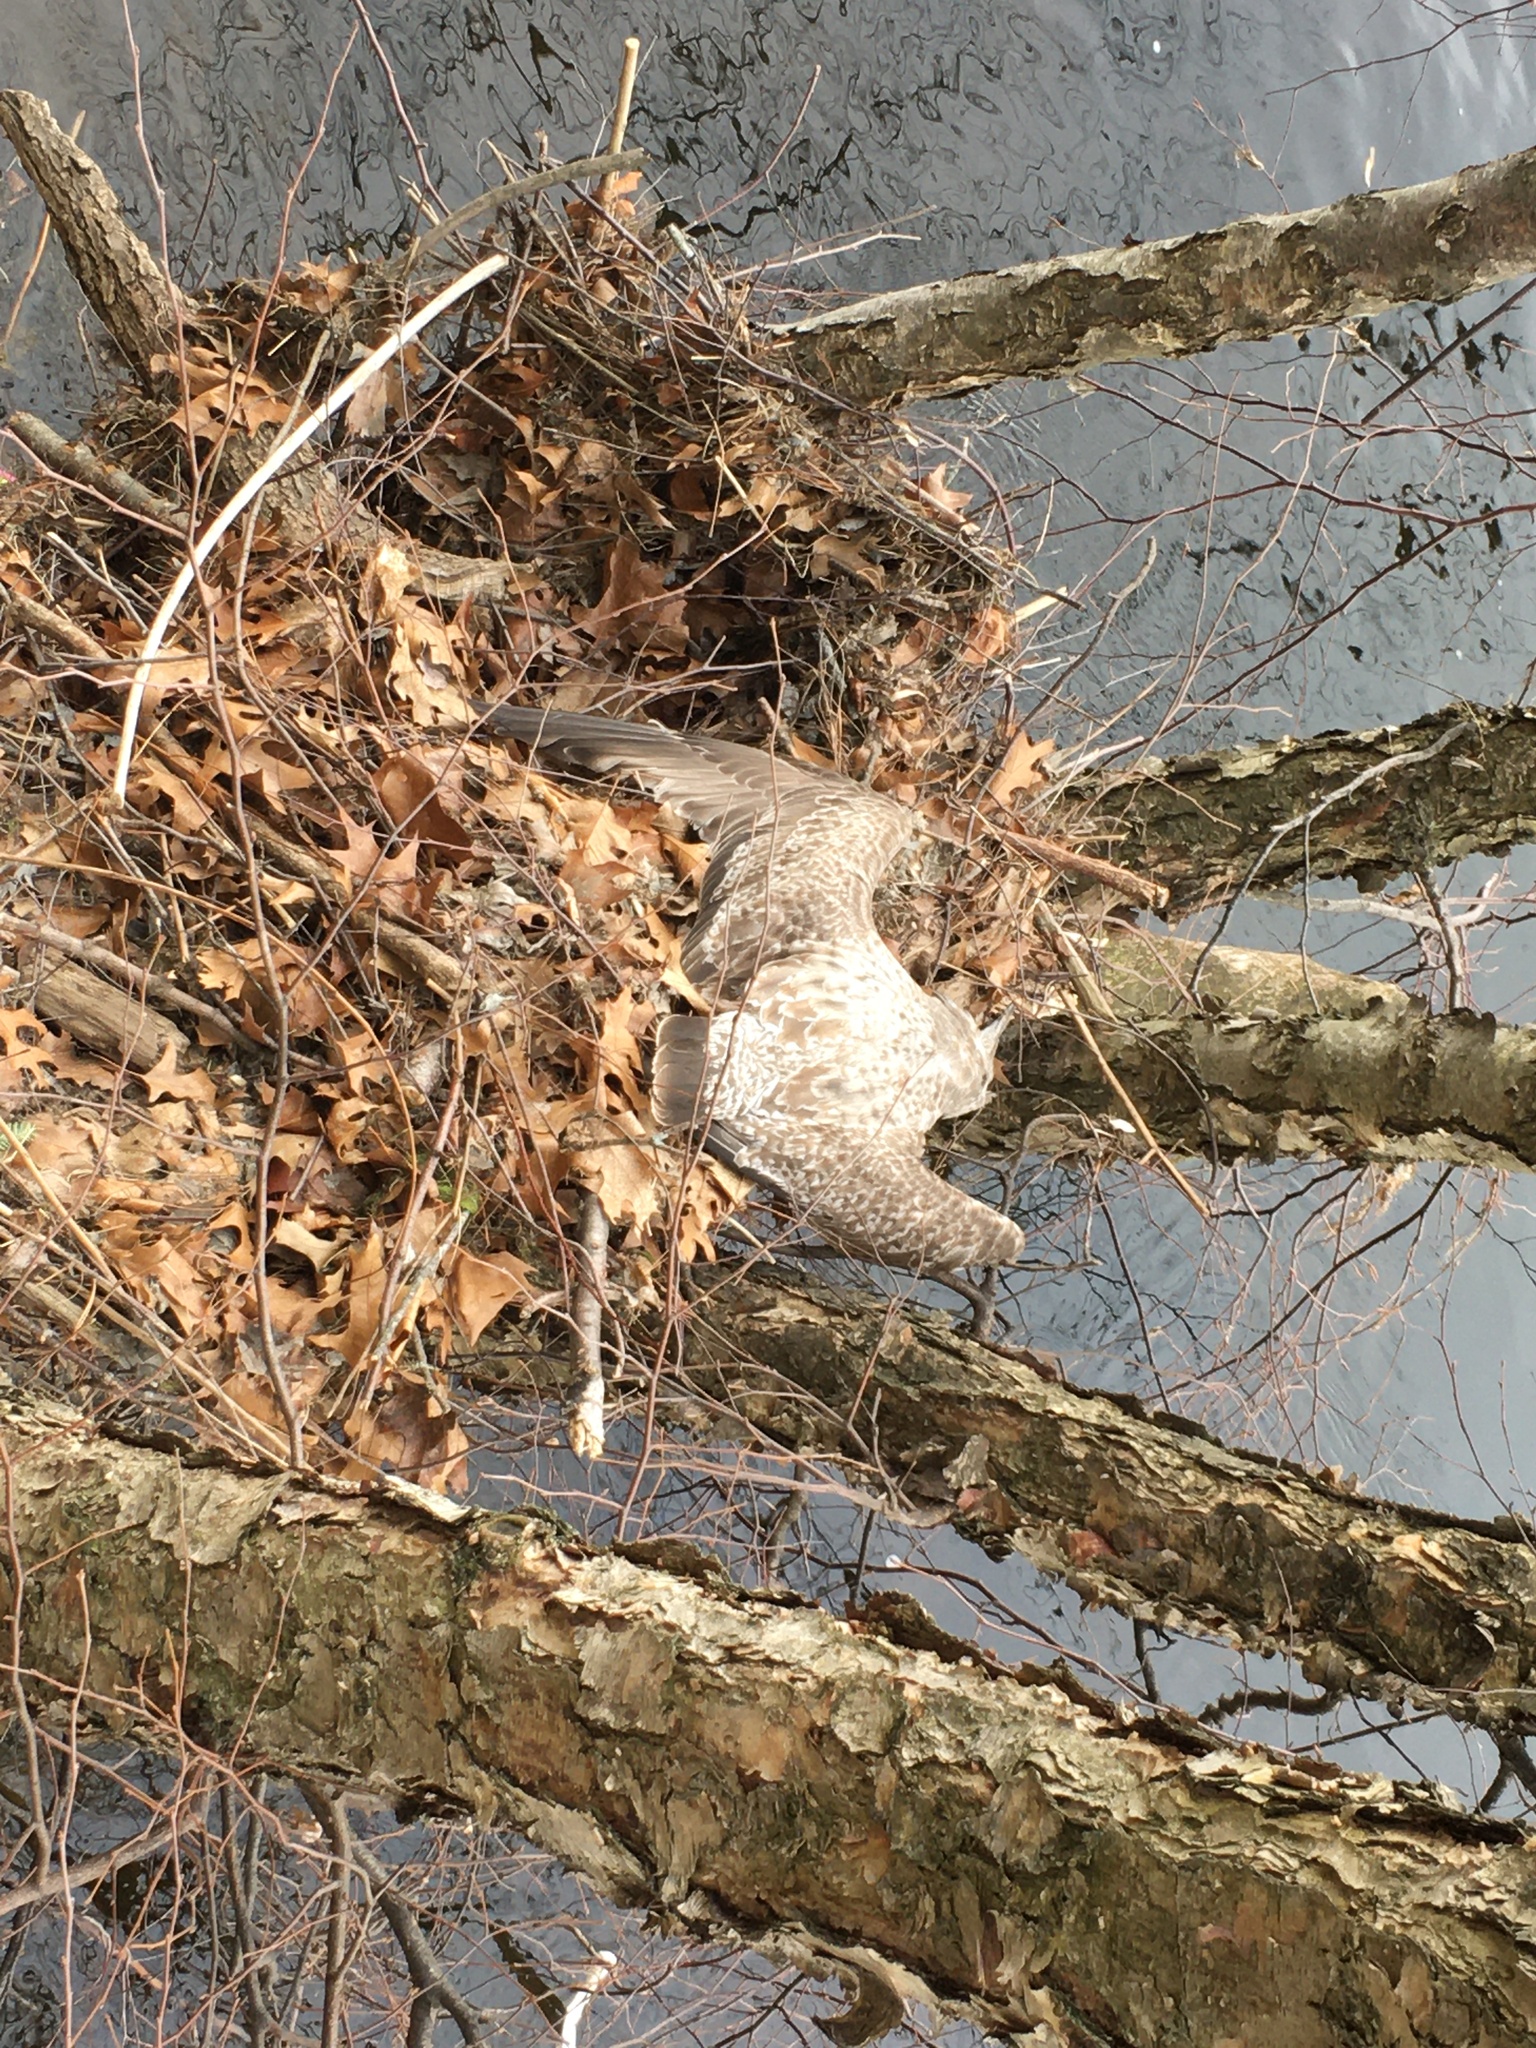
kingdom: Animalia
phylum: Chordata
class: Aves
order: Charadriiformes
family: Laridae
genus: Larus
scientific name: Larus argentatus
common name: Herring gull
